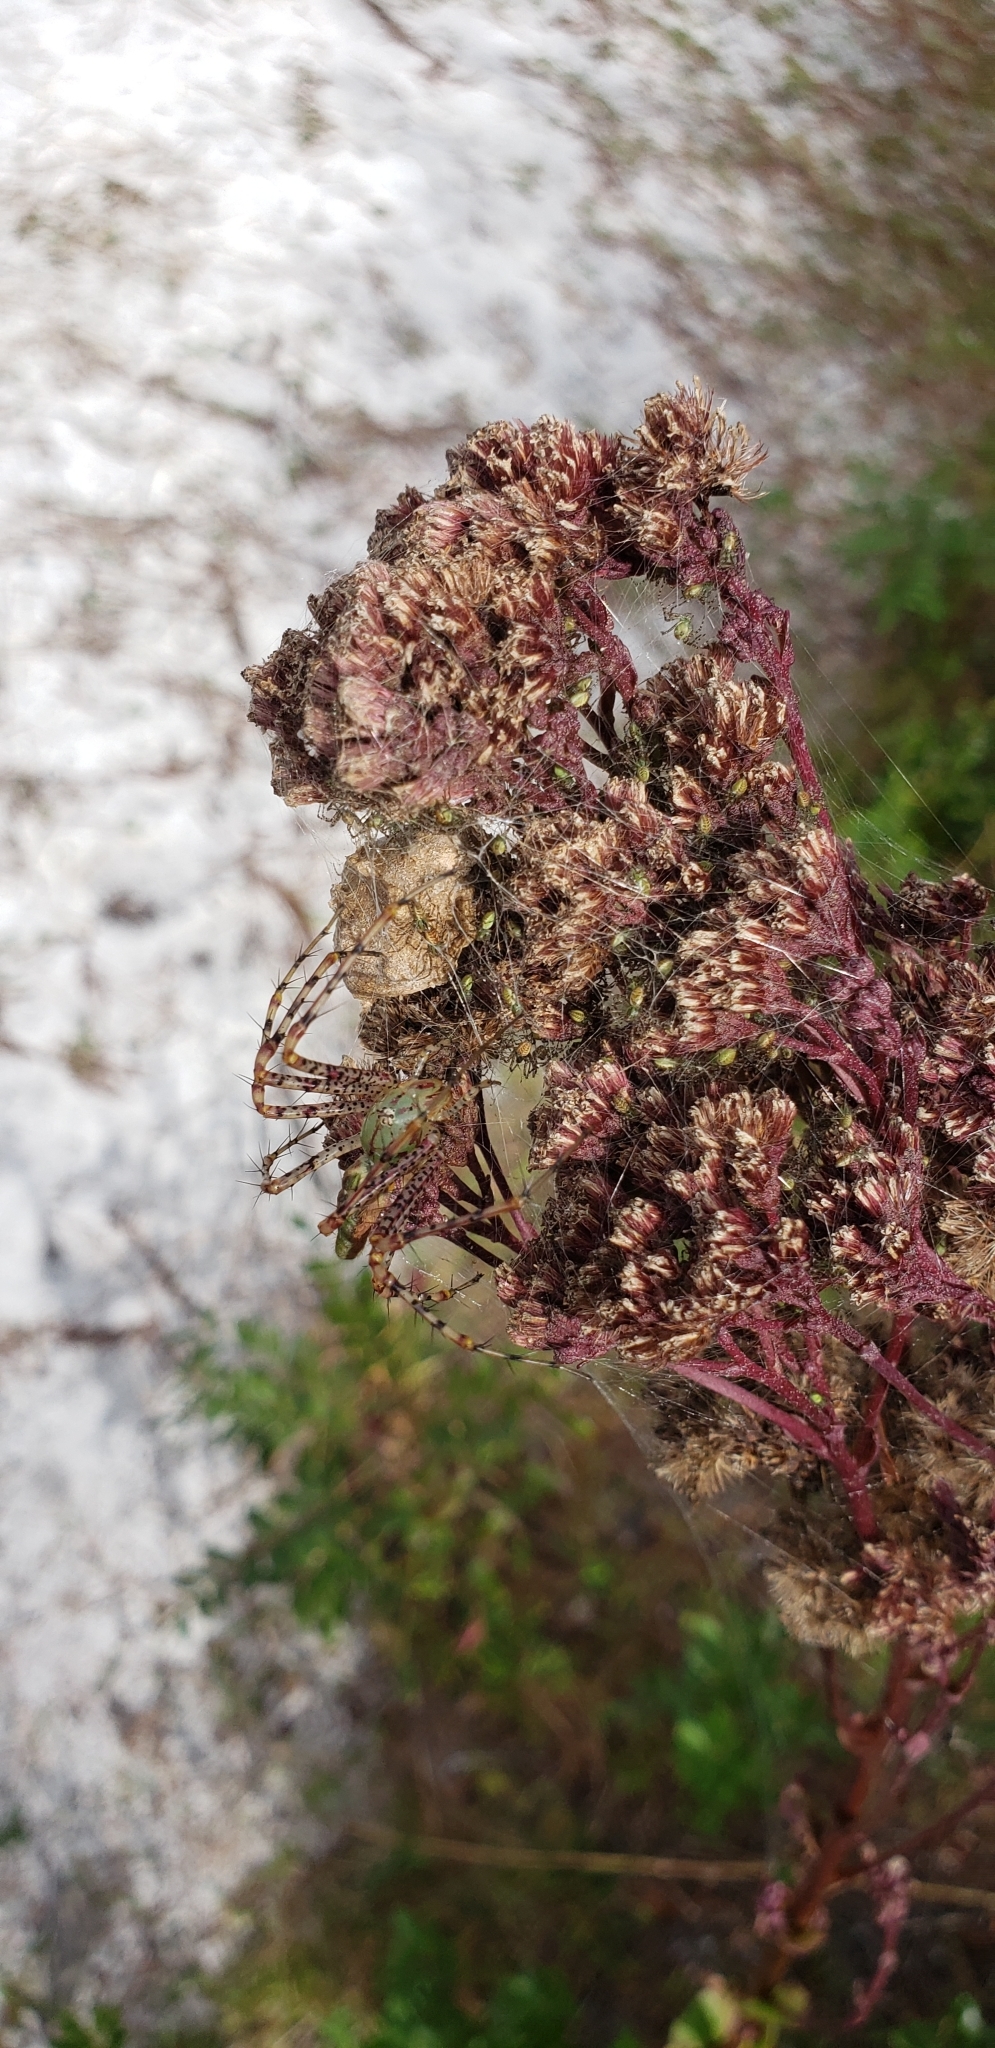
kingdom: Animalia
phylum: Arthropoda
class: Arachnida
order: Araneae
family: Oxyopidae
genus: Peucetia
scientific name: Peucetia viridans
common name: Lynx spiders
